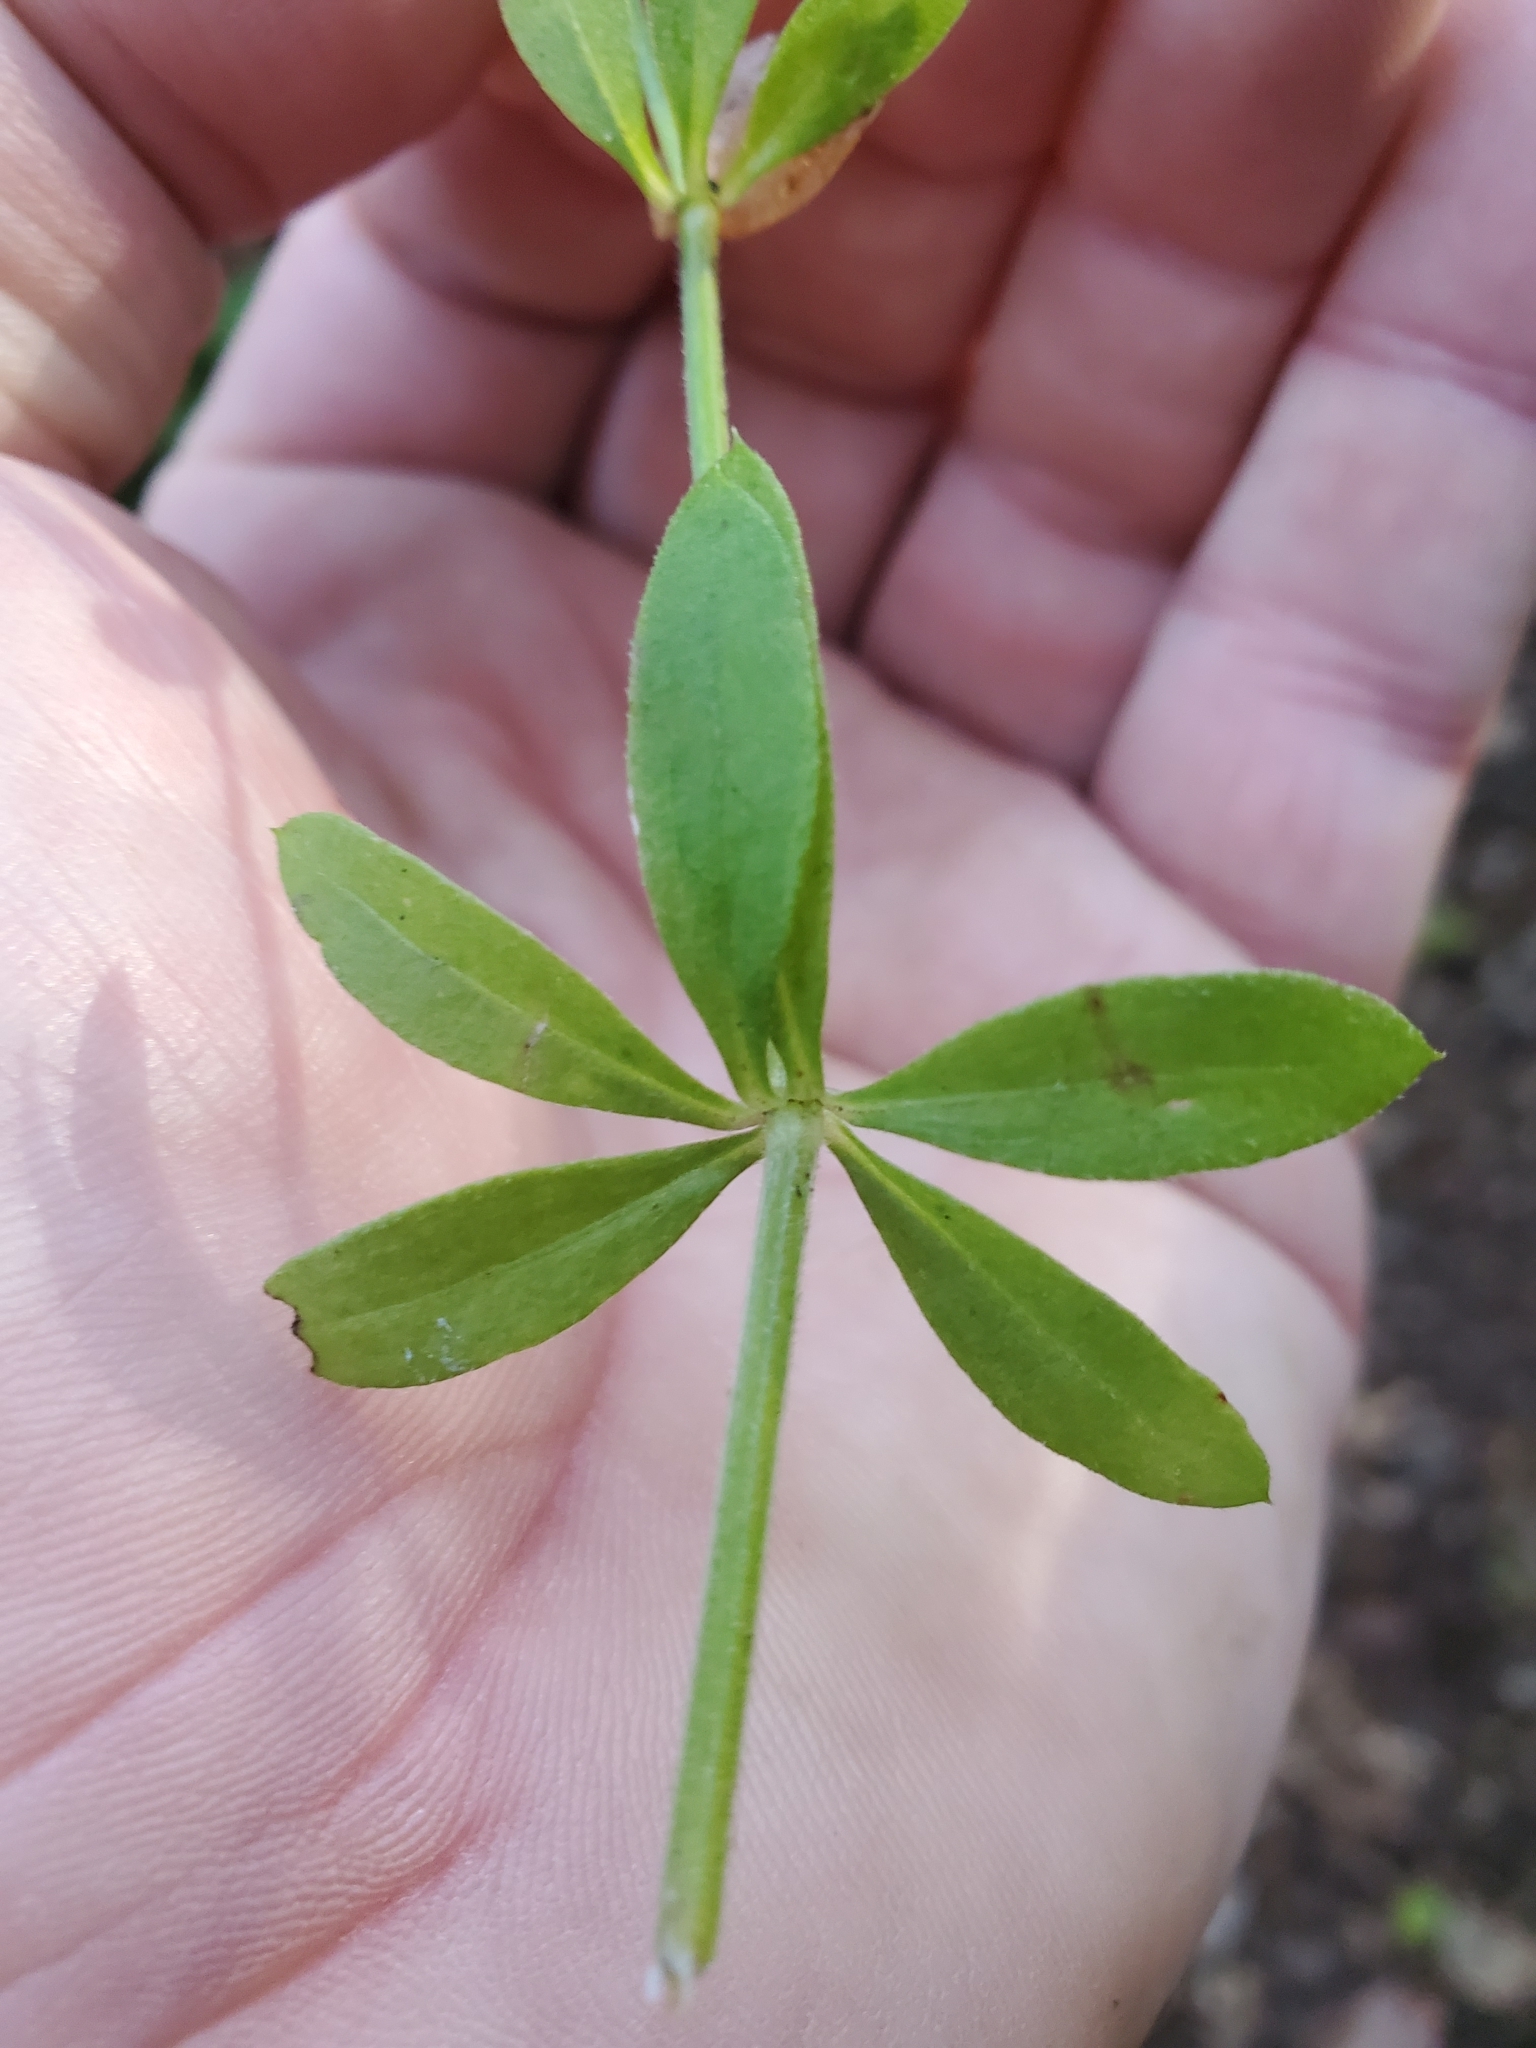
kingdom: Plantae
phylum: Tracheophyta
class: Magnoliopsida
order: Gentianales
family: Rubiaceae
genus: Galium
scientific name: Galium triflorum
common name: Fragrant bedstraw
